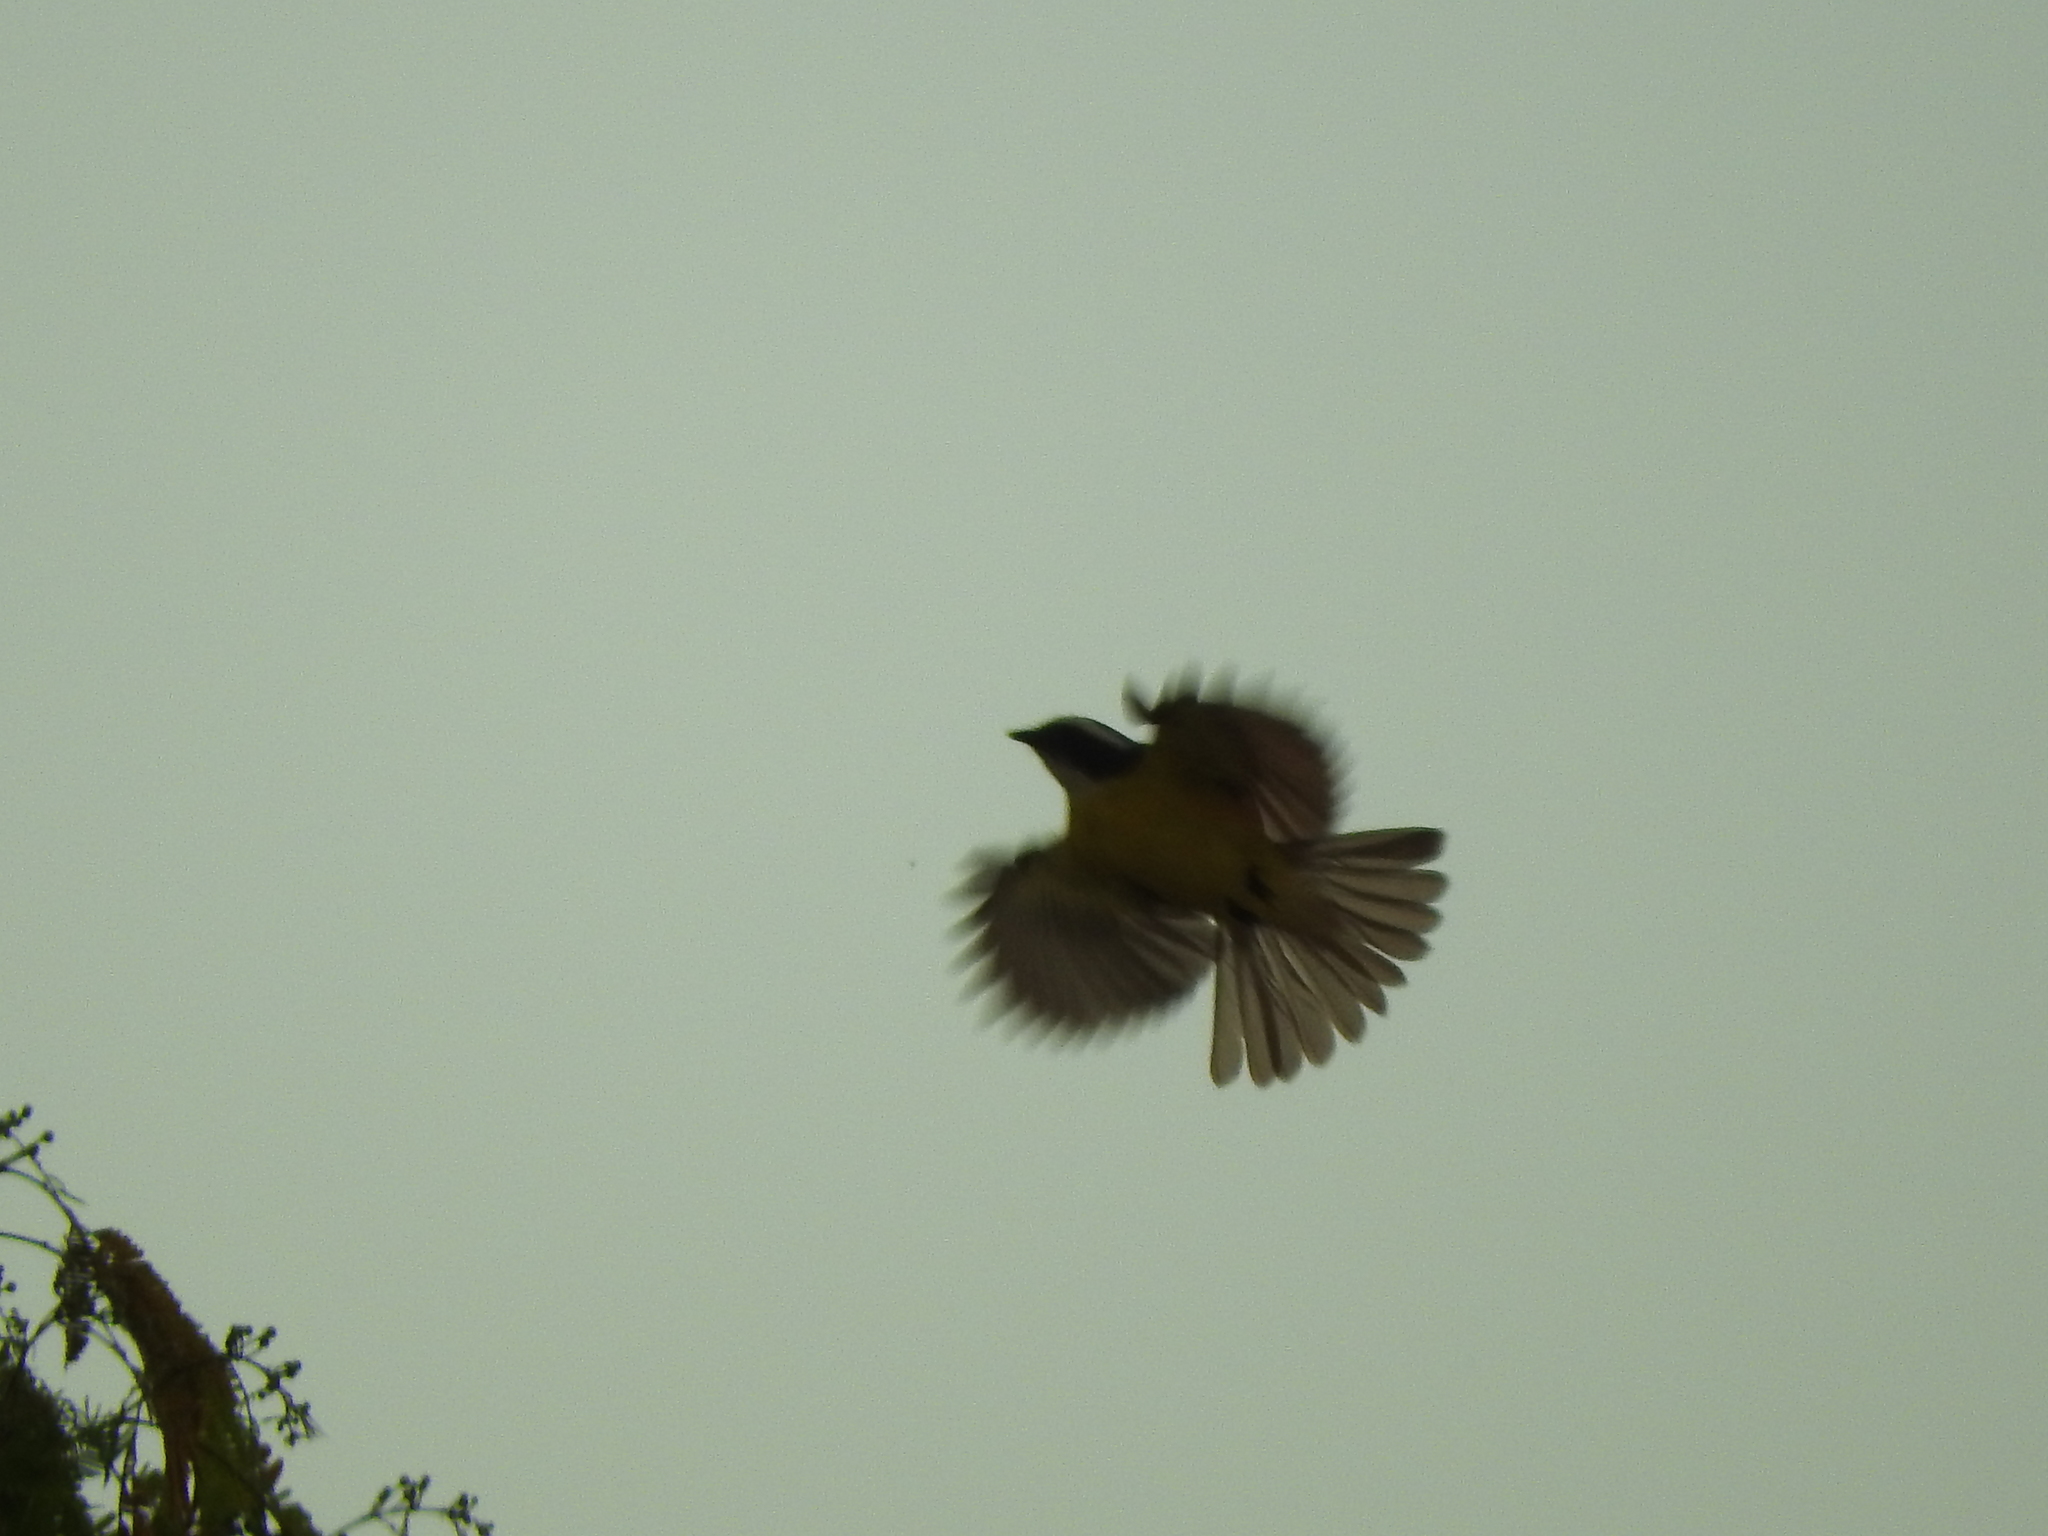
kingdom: Animalia
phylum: Chordata
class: Aves
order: Passeriformes
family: Tyrannidae
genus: Myiozetetes
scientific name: Myiozetetes similis
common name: Social flycatcher
